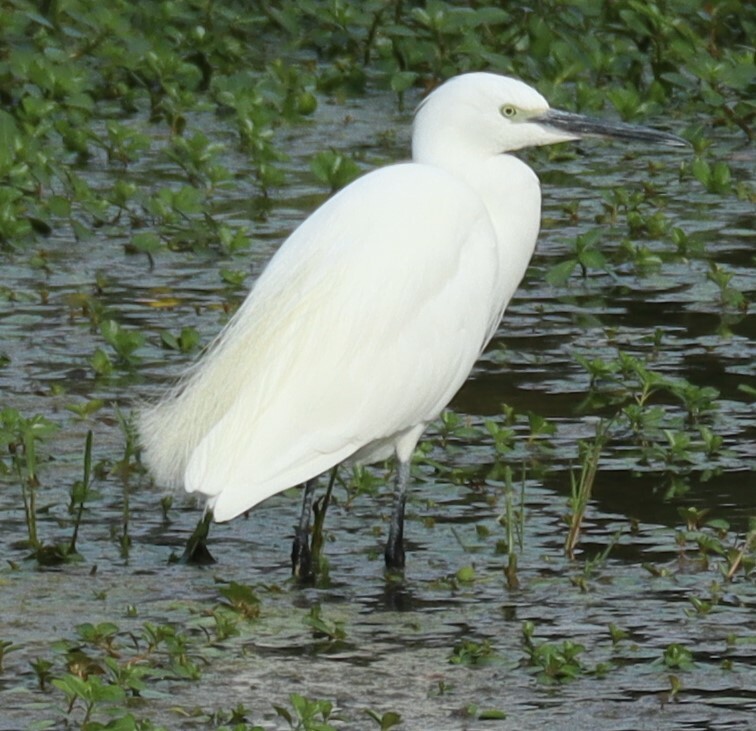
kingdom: Animalia
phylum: Chordata
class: Aves
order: Pelecaniformes
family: Ardeidae
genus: Egretta
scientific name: Egretta garzetta
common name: Little egret
